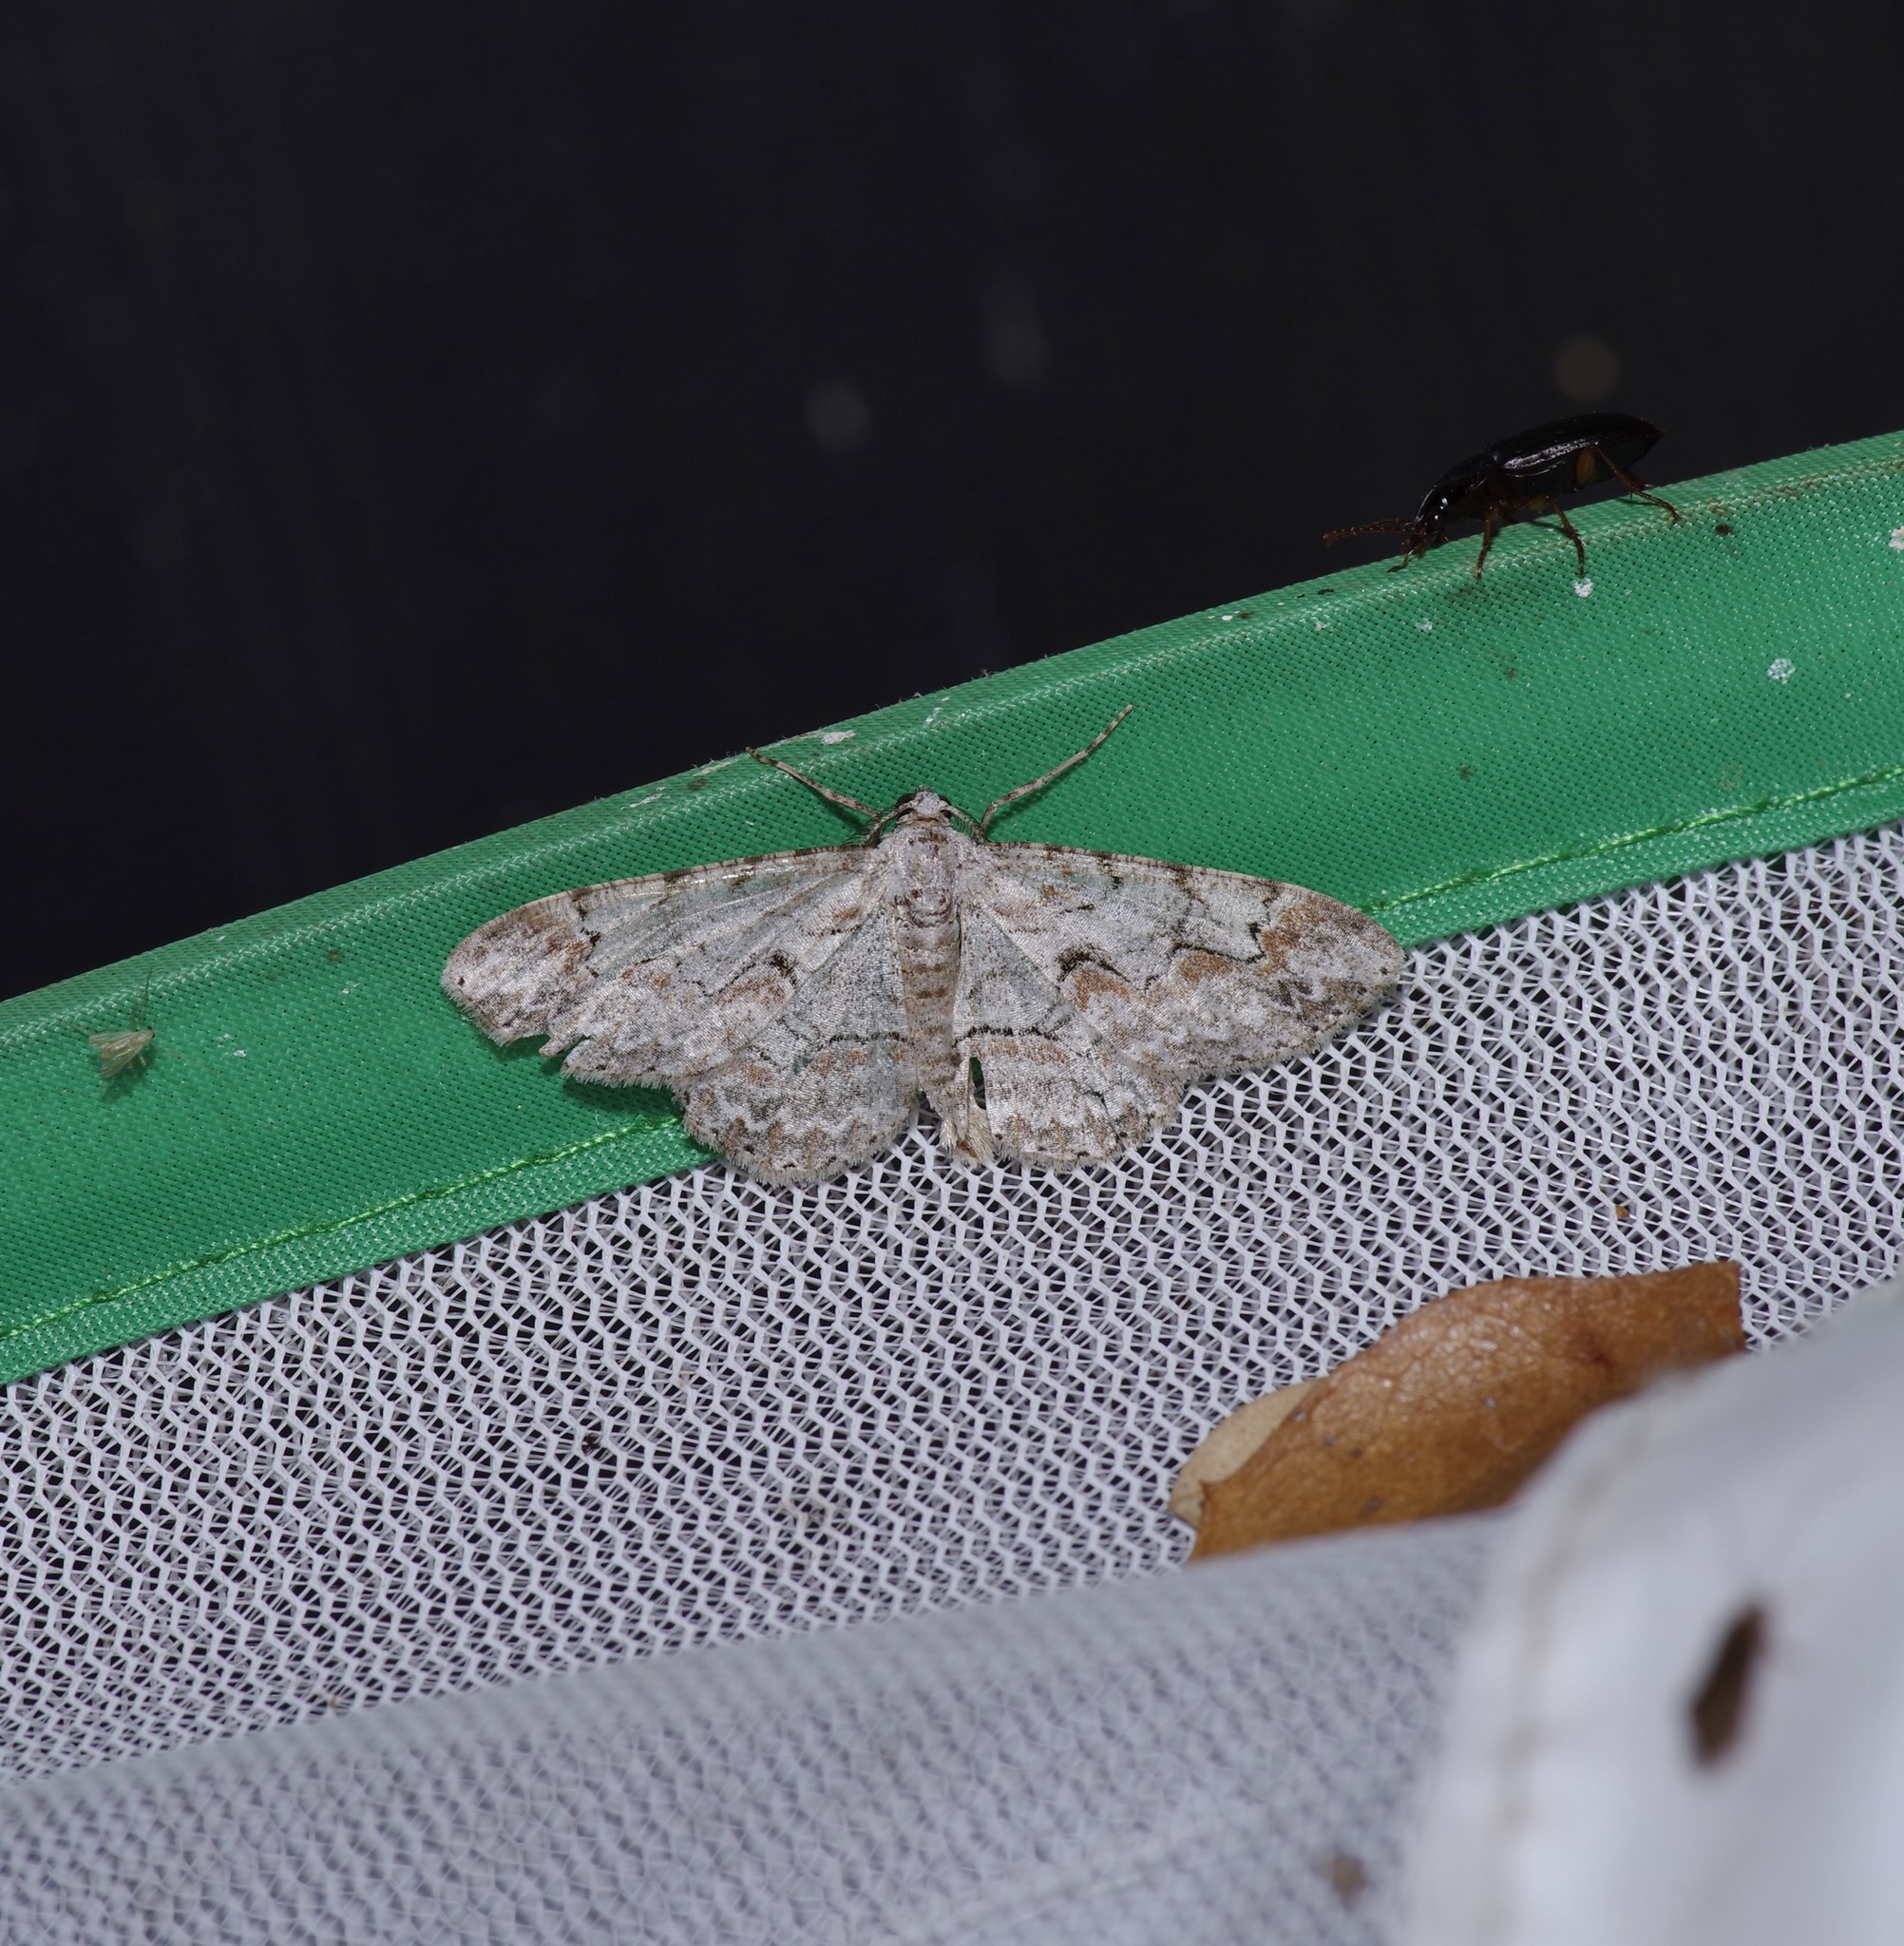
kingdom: Animalia
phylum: Arthropoda
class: Insecta
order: Lepidoptera
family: Geometridae
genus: Iridopsis
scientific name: Iridopsis defectaria
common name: Brown-shaded gray
